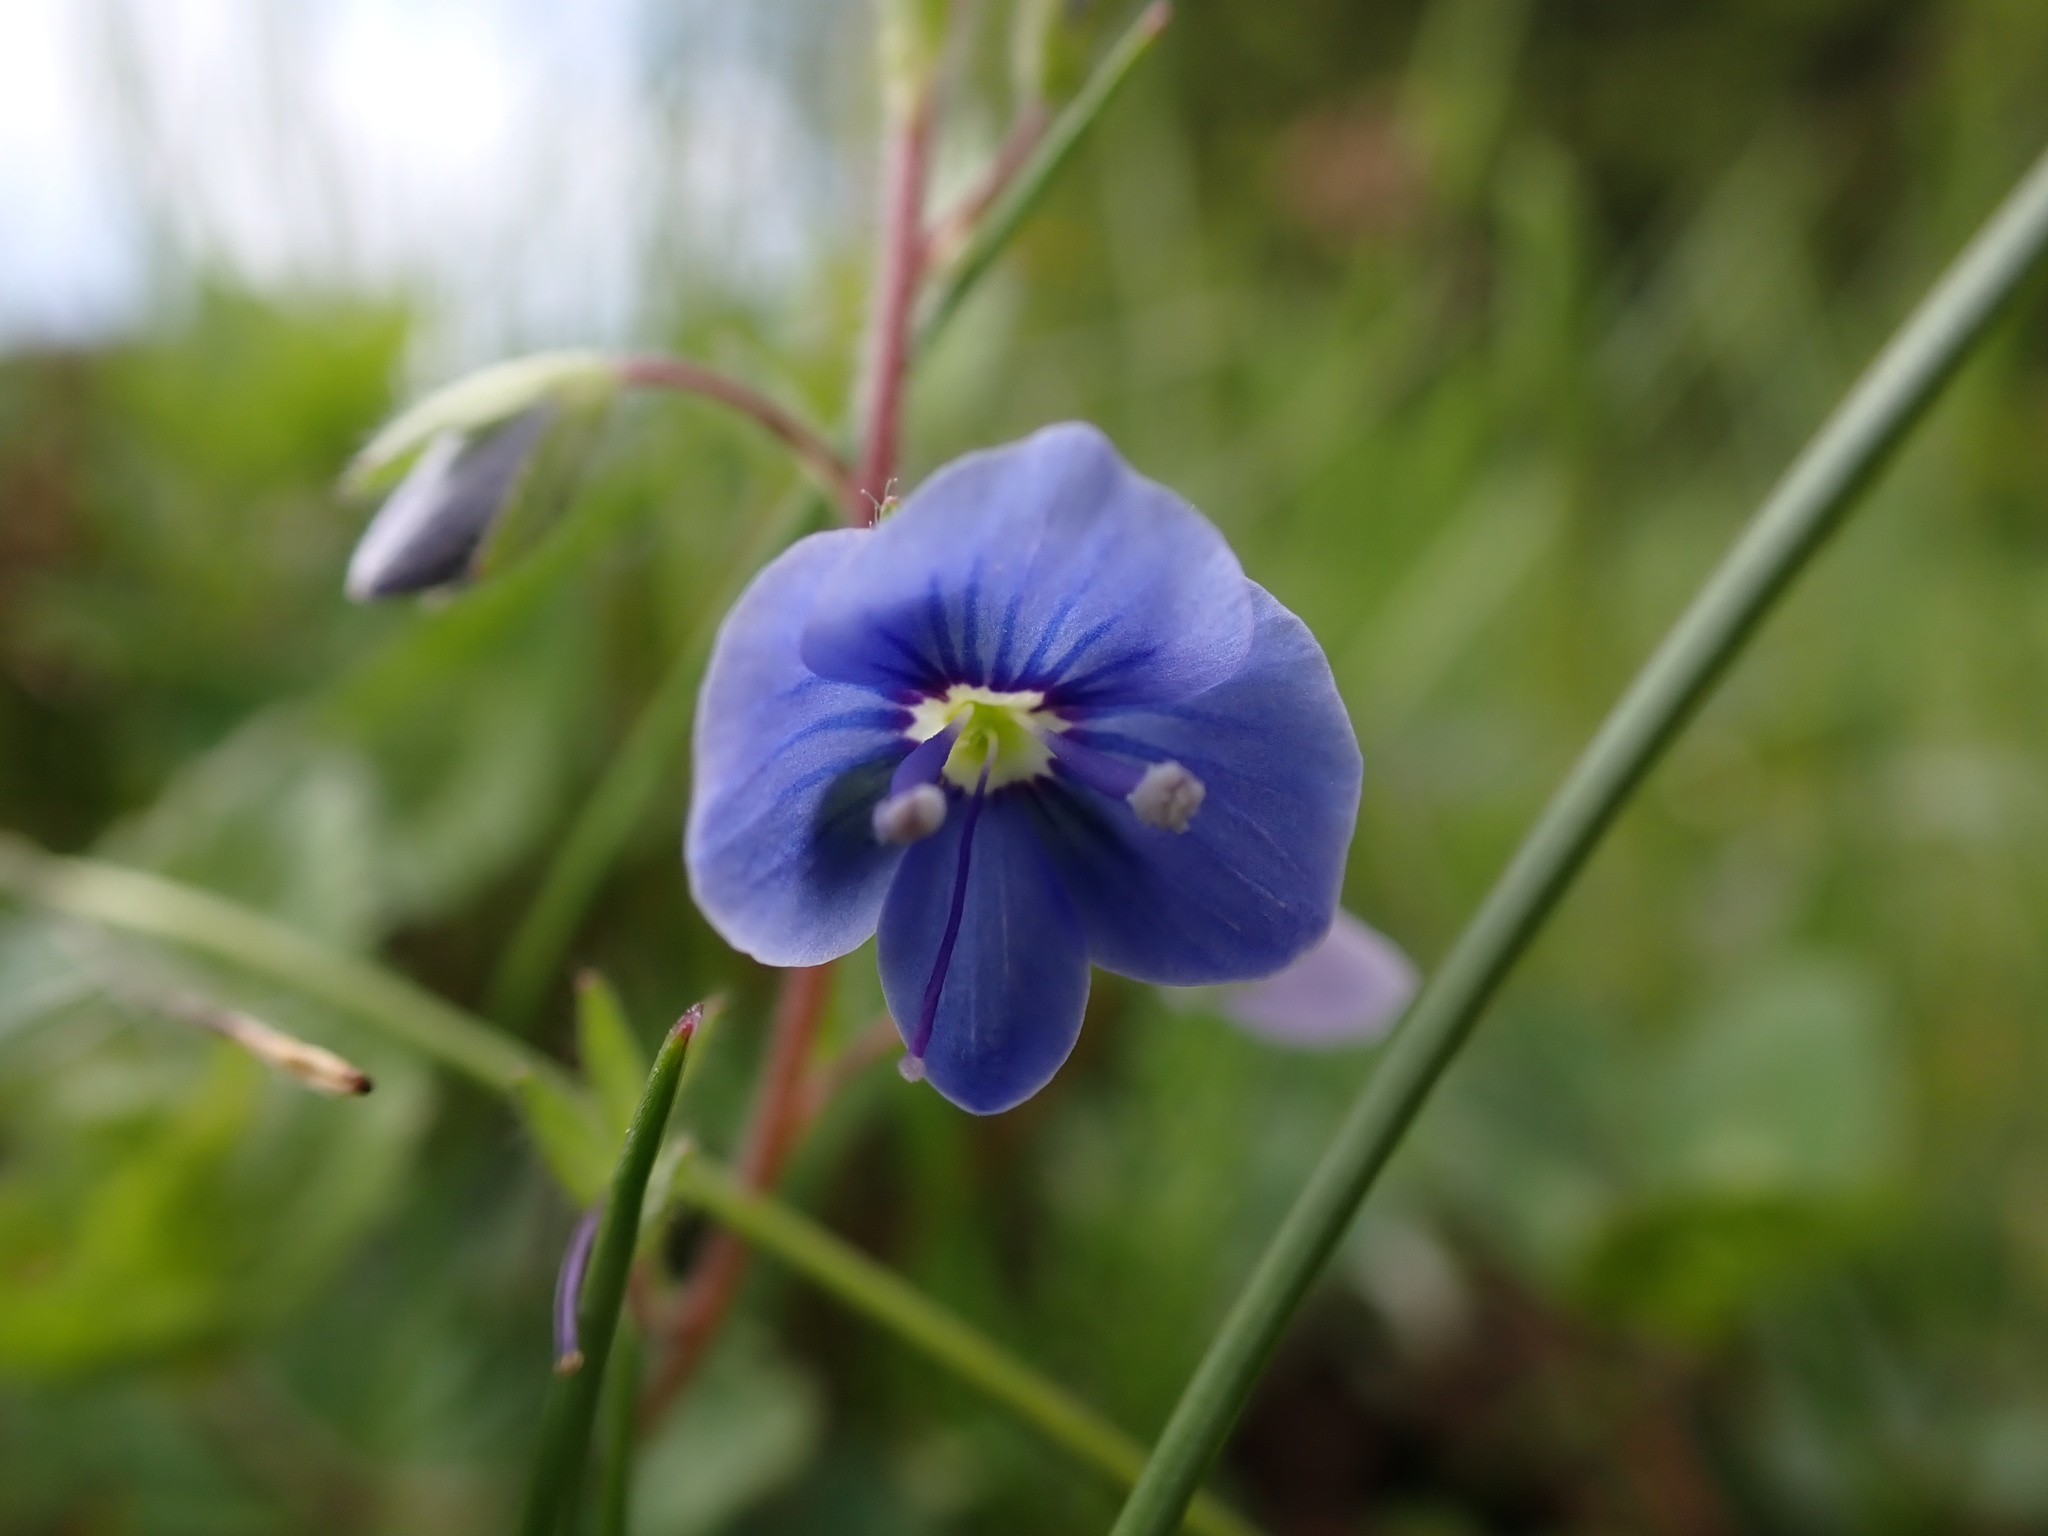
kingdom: Plantae
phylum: Tracheophyta
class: Magnoliopsida
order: Lamiales
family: Plantaginaceae
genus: Veronica
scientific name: Veronica chamaedrys
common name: Germander speedwell
